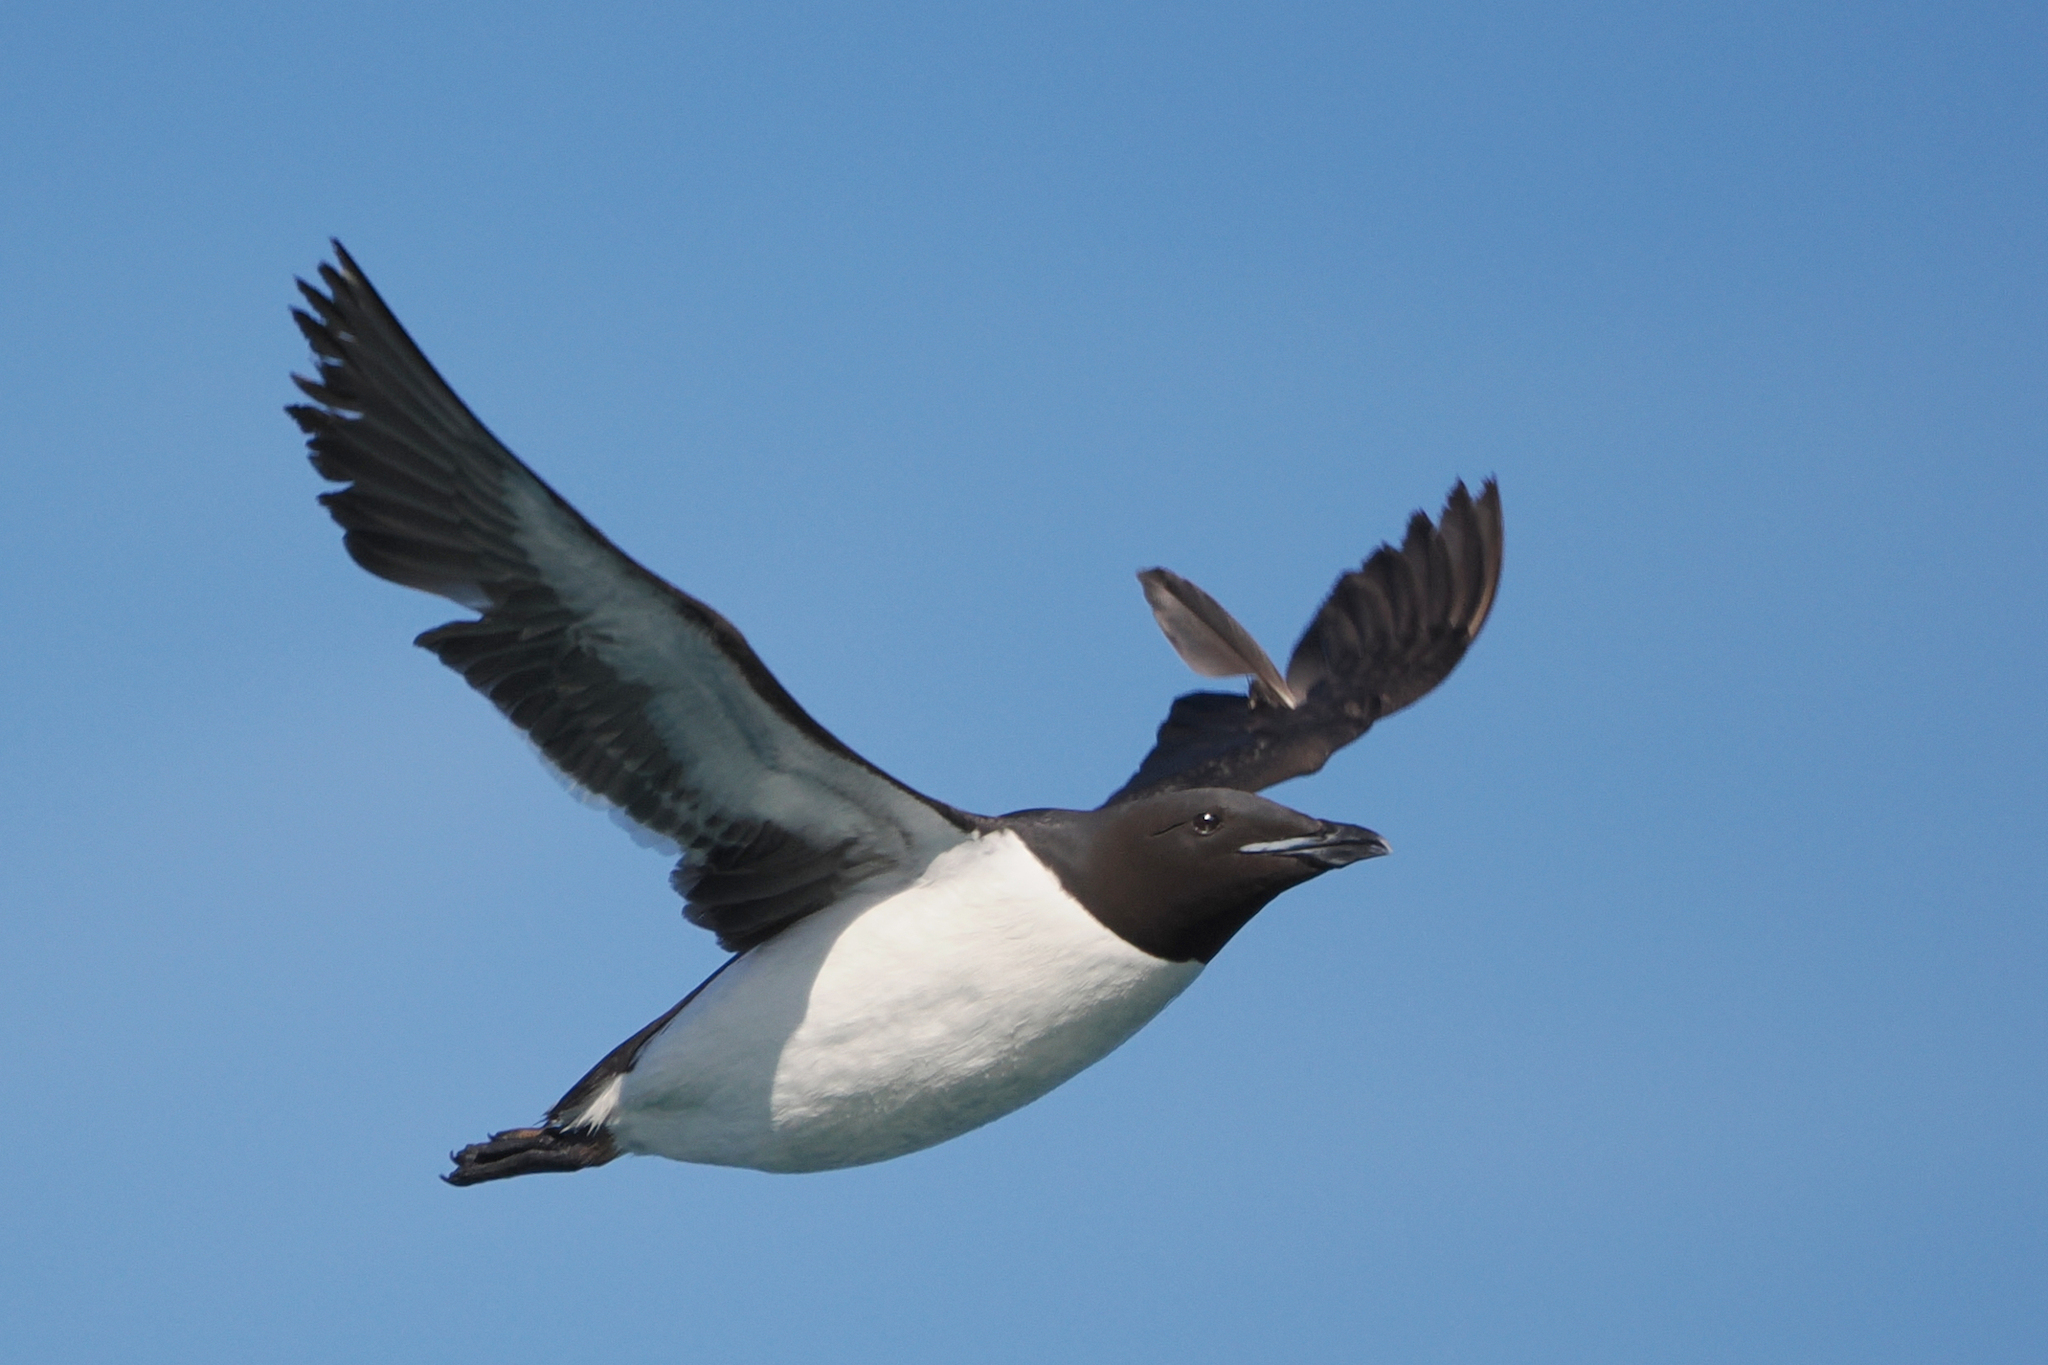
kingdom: Animalia
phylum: Chordata
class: Aves
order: Charadriiformes
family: Alcidae
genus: Uria
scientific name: Uria lomvia
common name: Thick-billed murre
